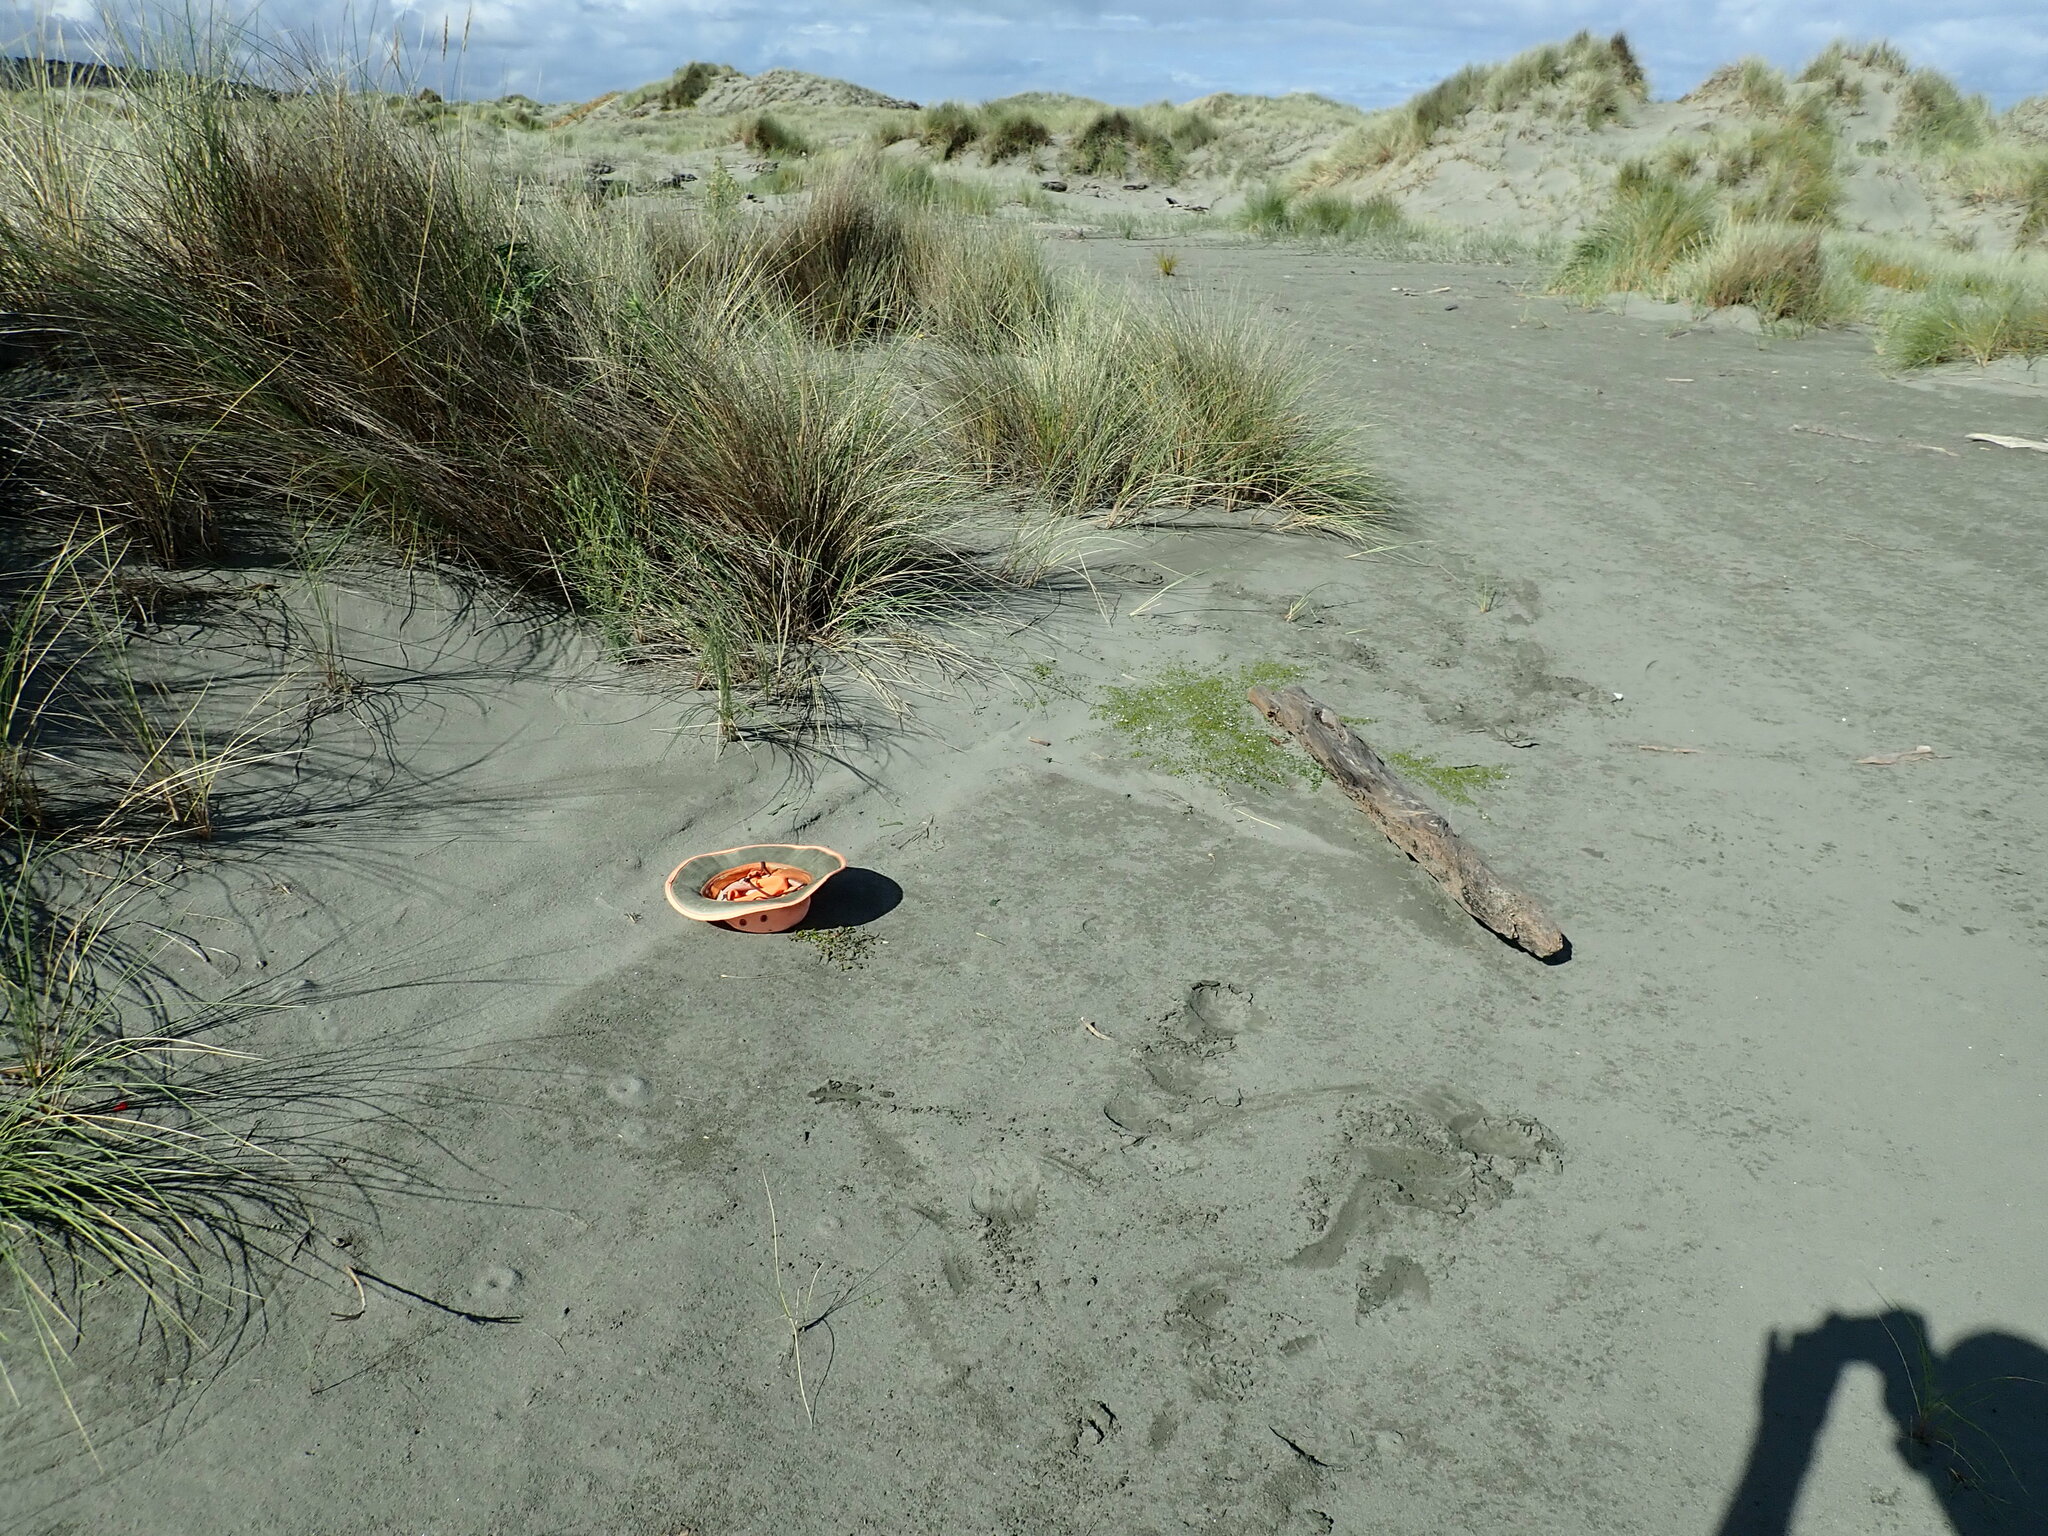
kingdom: Plantae
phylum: Tracheophyta
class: Magnoliopsida
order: Asterales
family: Goodeniaceae
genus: Goodenia
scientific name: Goodenia radicans
